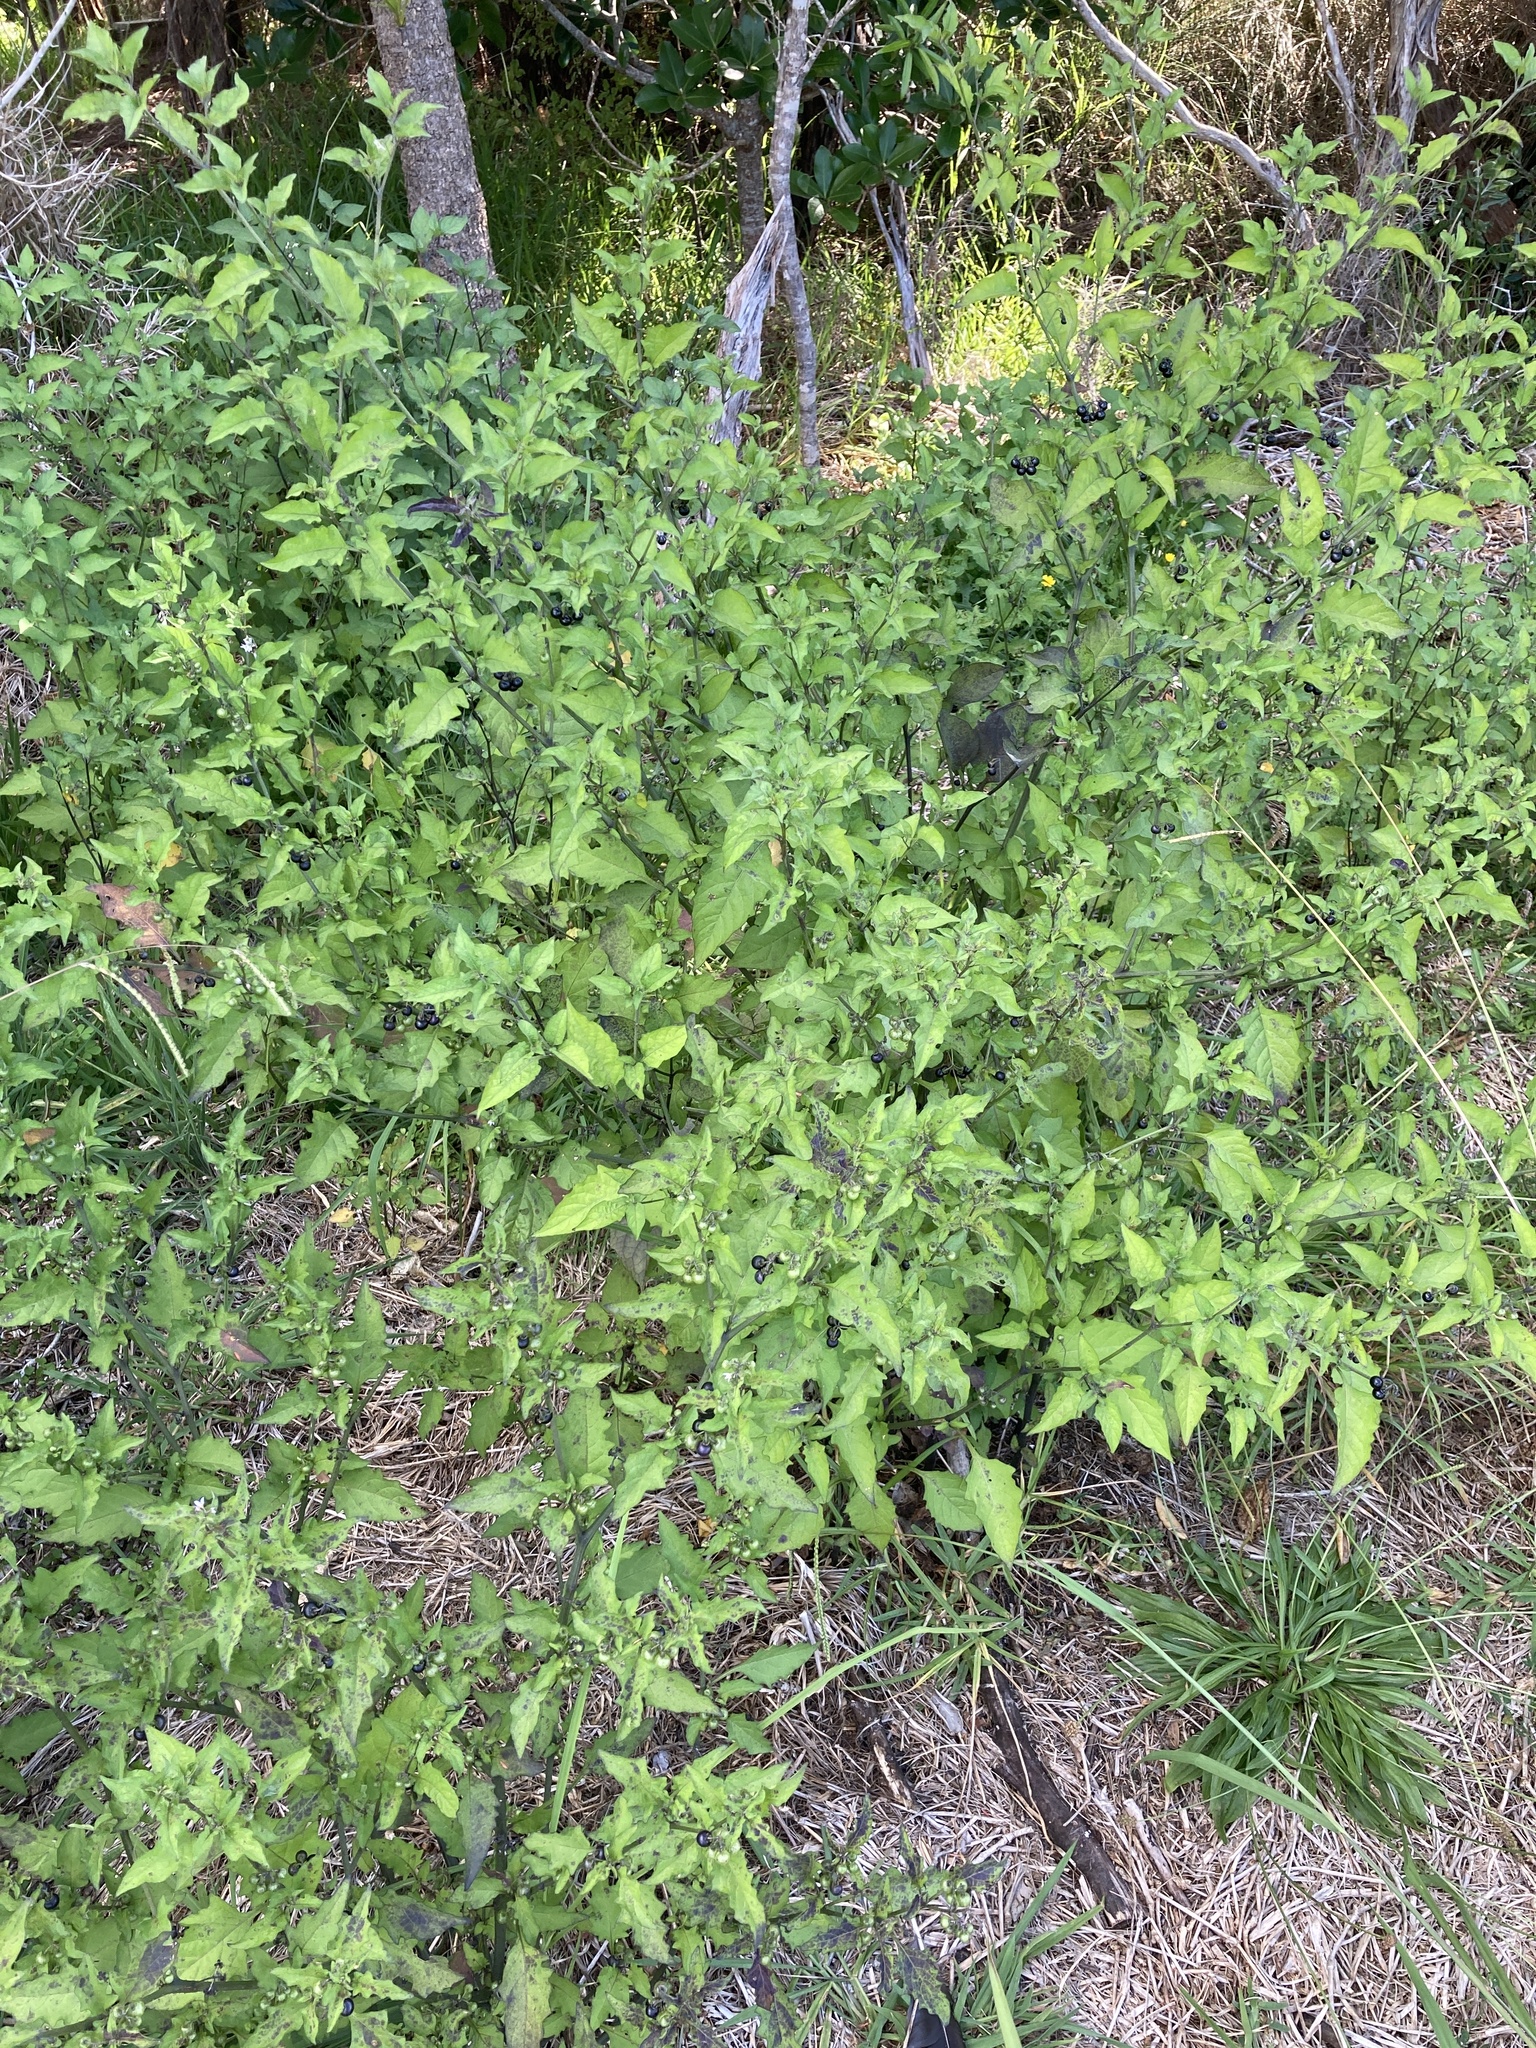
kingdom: Plantae
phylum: Tracheophyta
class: Magnoliopsida
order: Solanales
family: Solanaceae
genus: Solanum
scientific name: Solanum americanum
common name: American black nightshade
